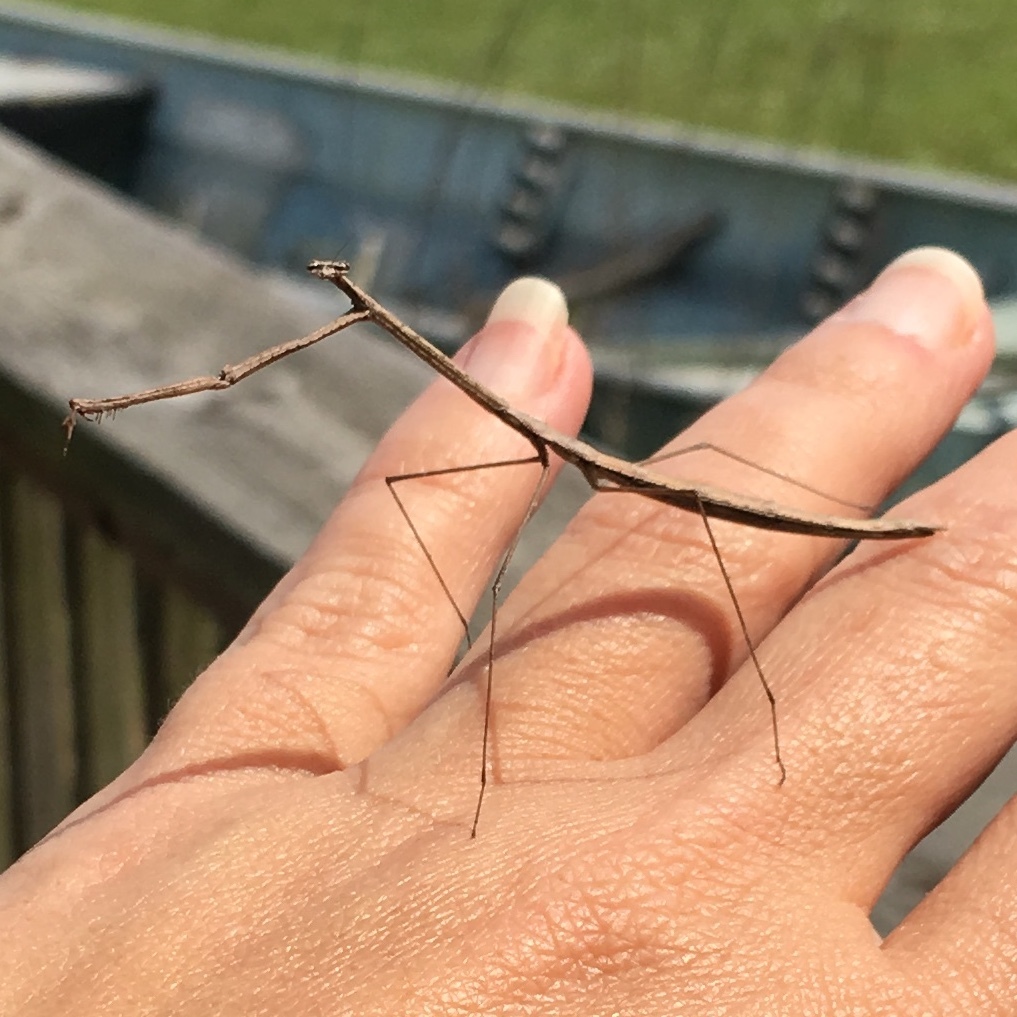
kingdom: Animalia
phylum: Arthropoda
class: Insecta
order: Mantodea
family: Thespidae
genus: Thesprotia
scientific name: Thesprotia graminis
